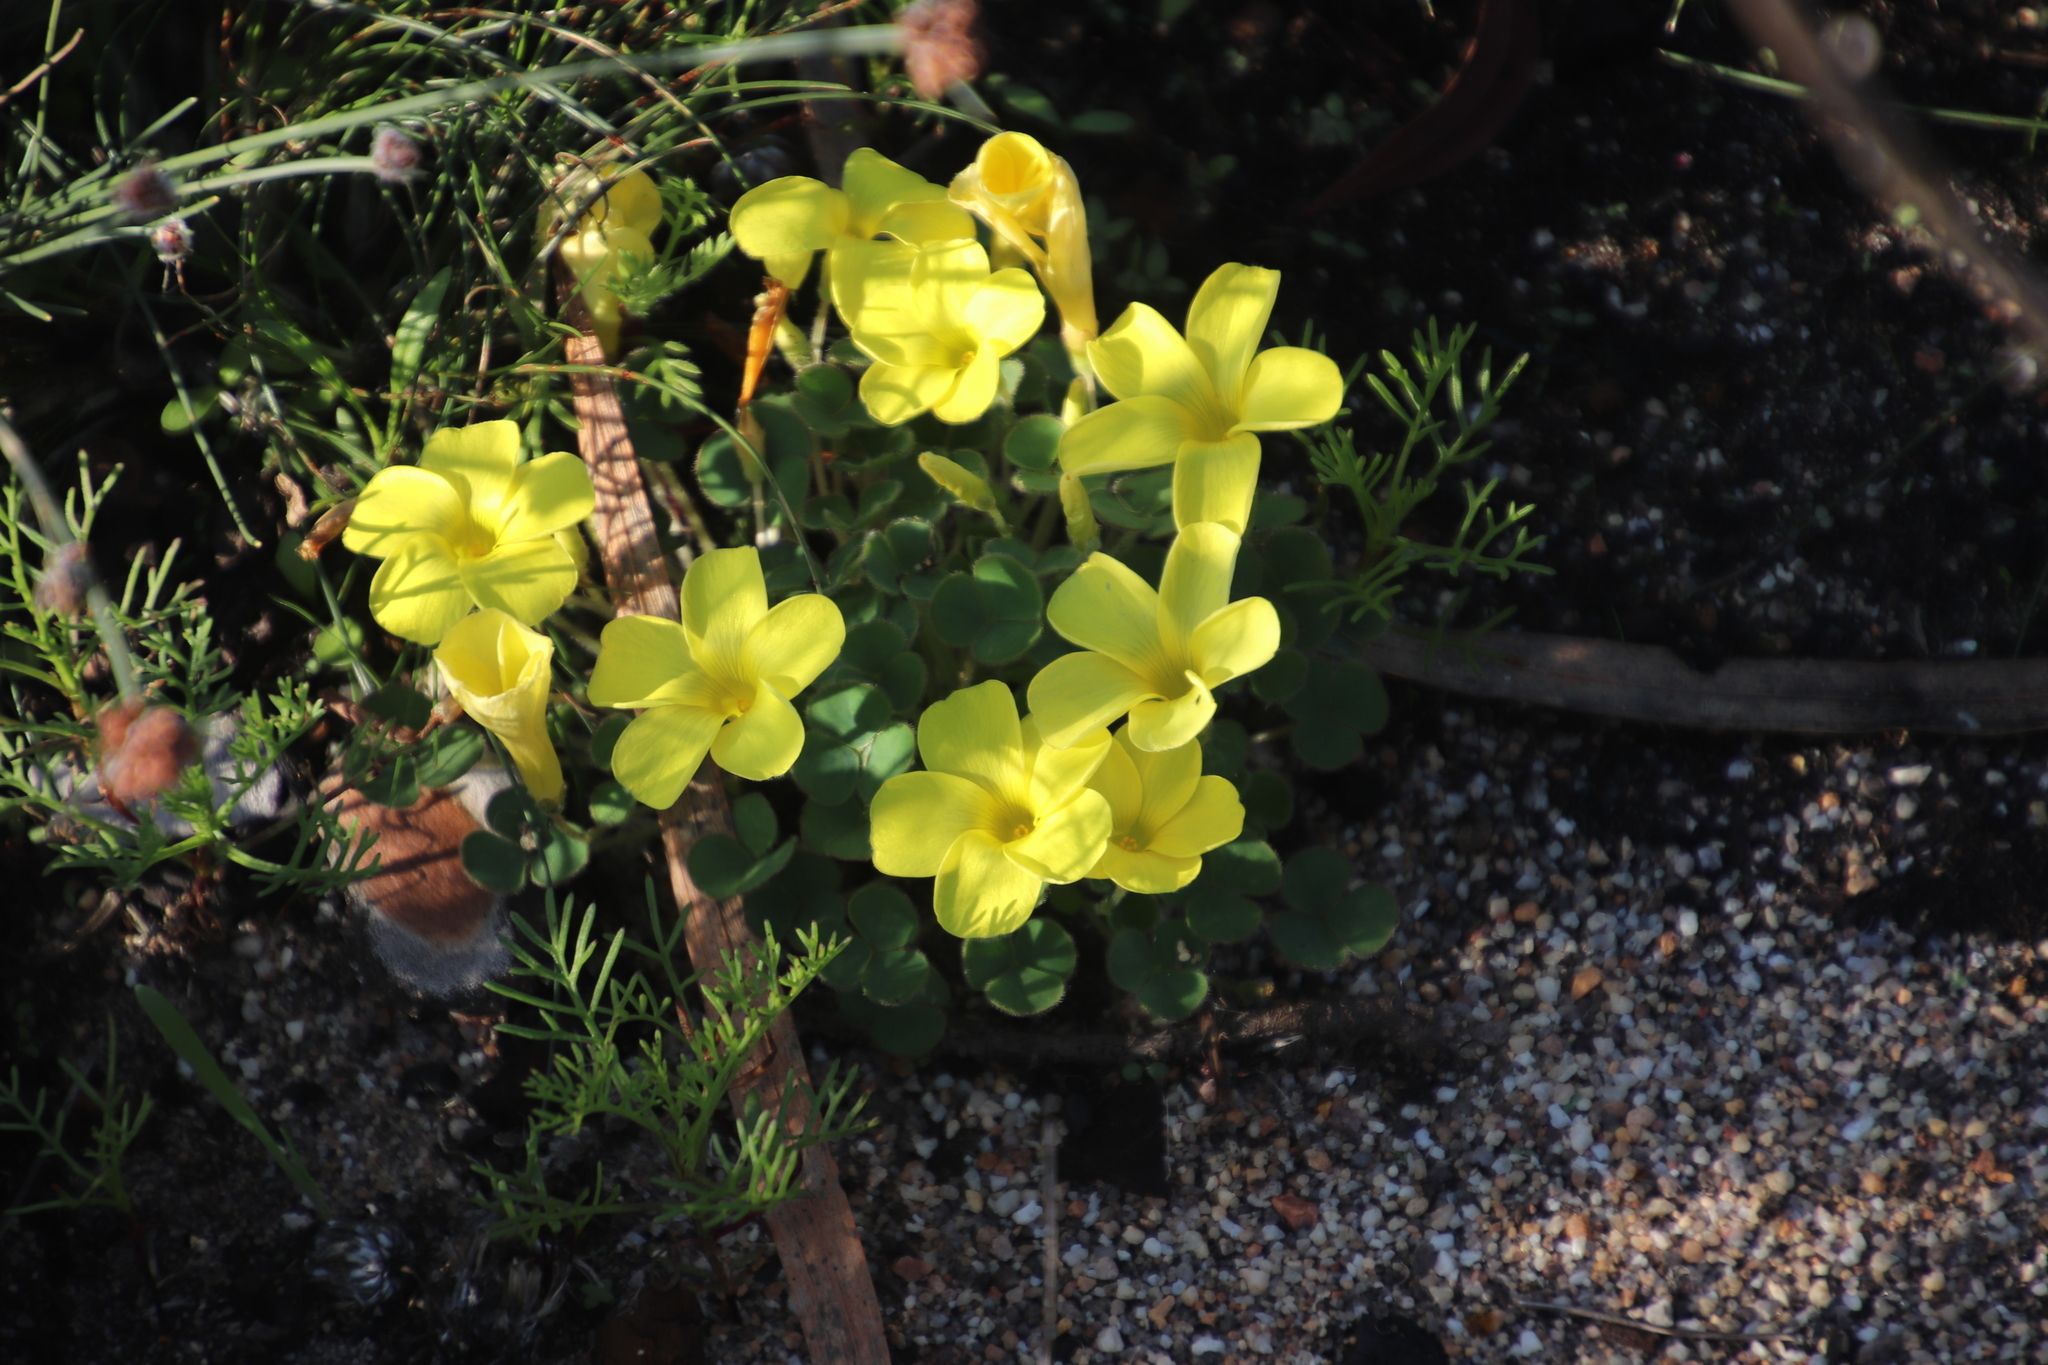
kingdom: Plantae
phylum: Tracheophyta
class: Magnoliopsida
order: Oxalidales
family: Oxalidaceae
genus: Oxalis
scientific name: Oxalis luteola
